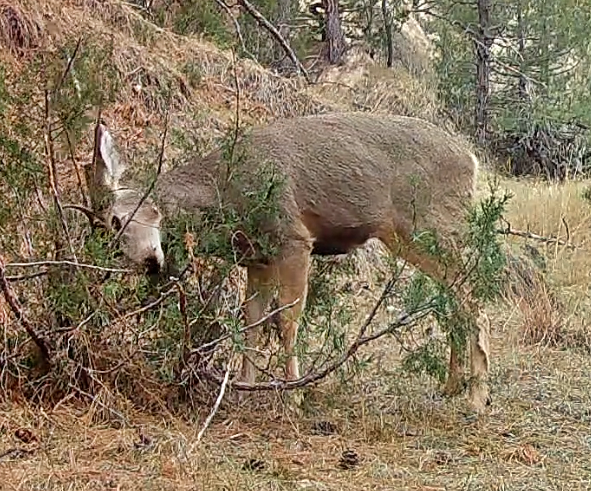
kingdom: Animalia
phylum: Chordata
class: Mammalia
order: Artiodactyla
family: Cervidae
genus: Odocoileus
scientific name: Odocoileus hemionus
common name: Mule deer
